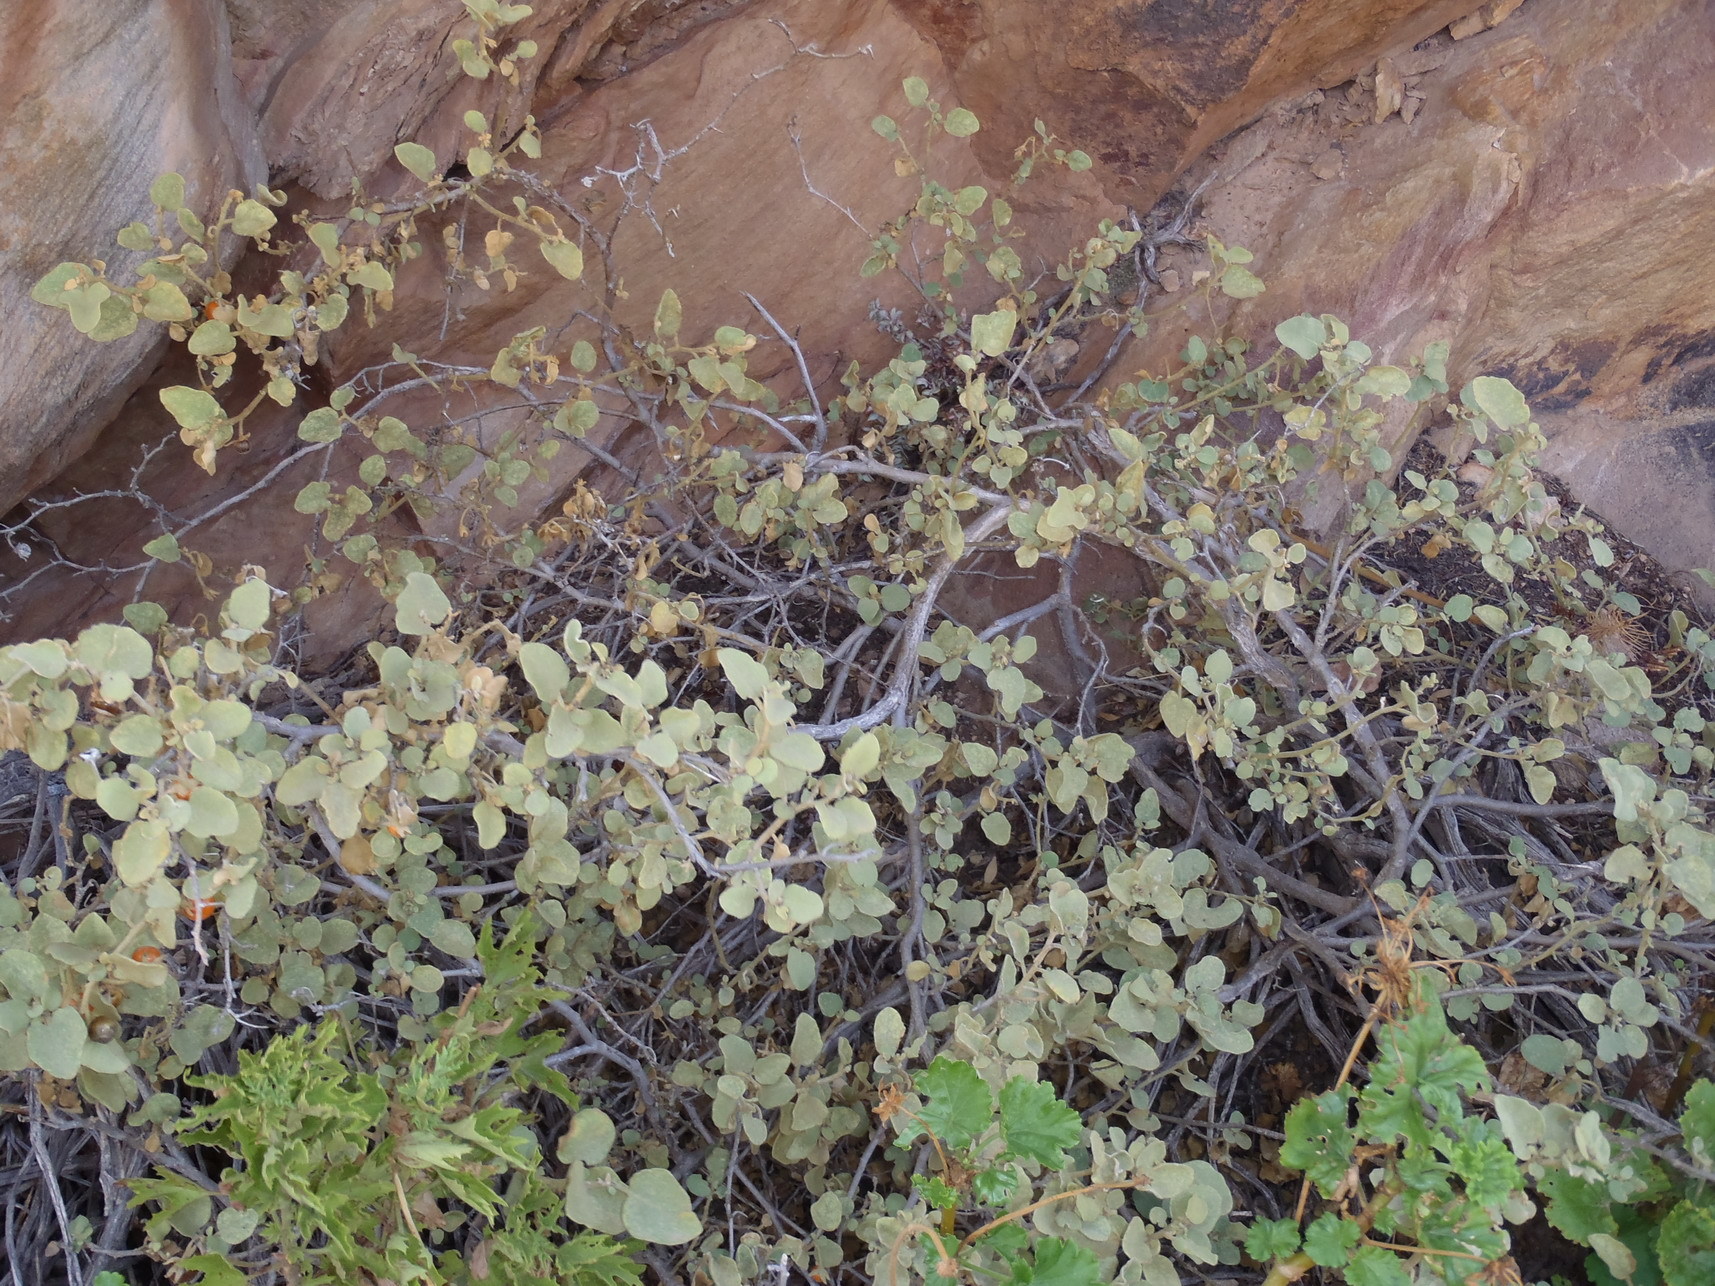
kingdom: Plantae
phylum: Tracheophyta
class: Magnoliopsida
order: Solanales
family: Solanaceae
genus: Solanum
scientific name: Solanum tomentosum
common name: Wild aubergine
